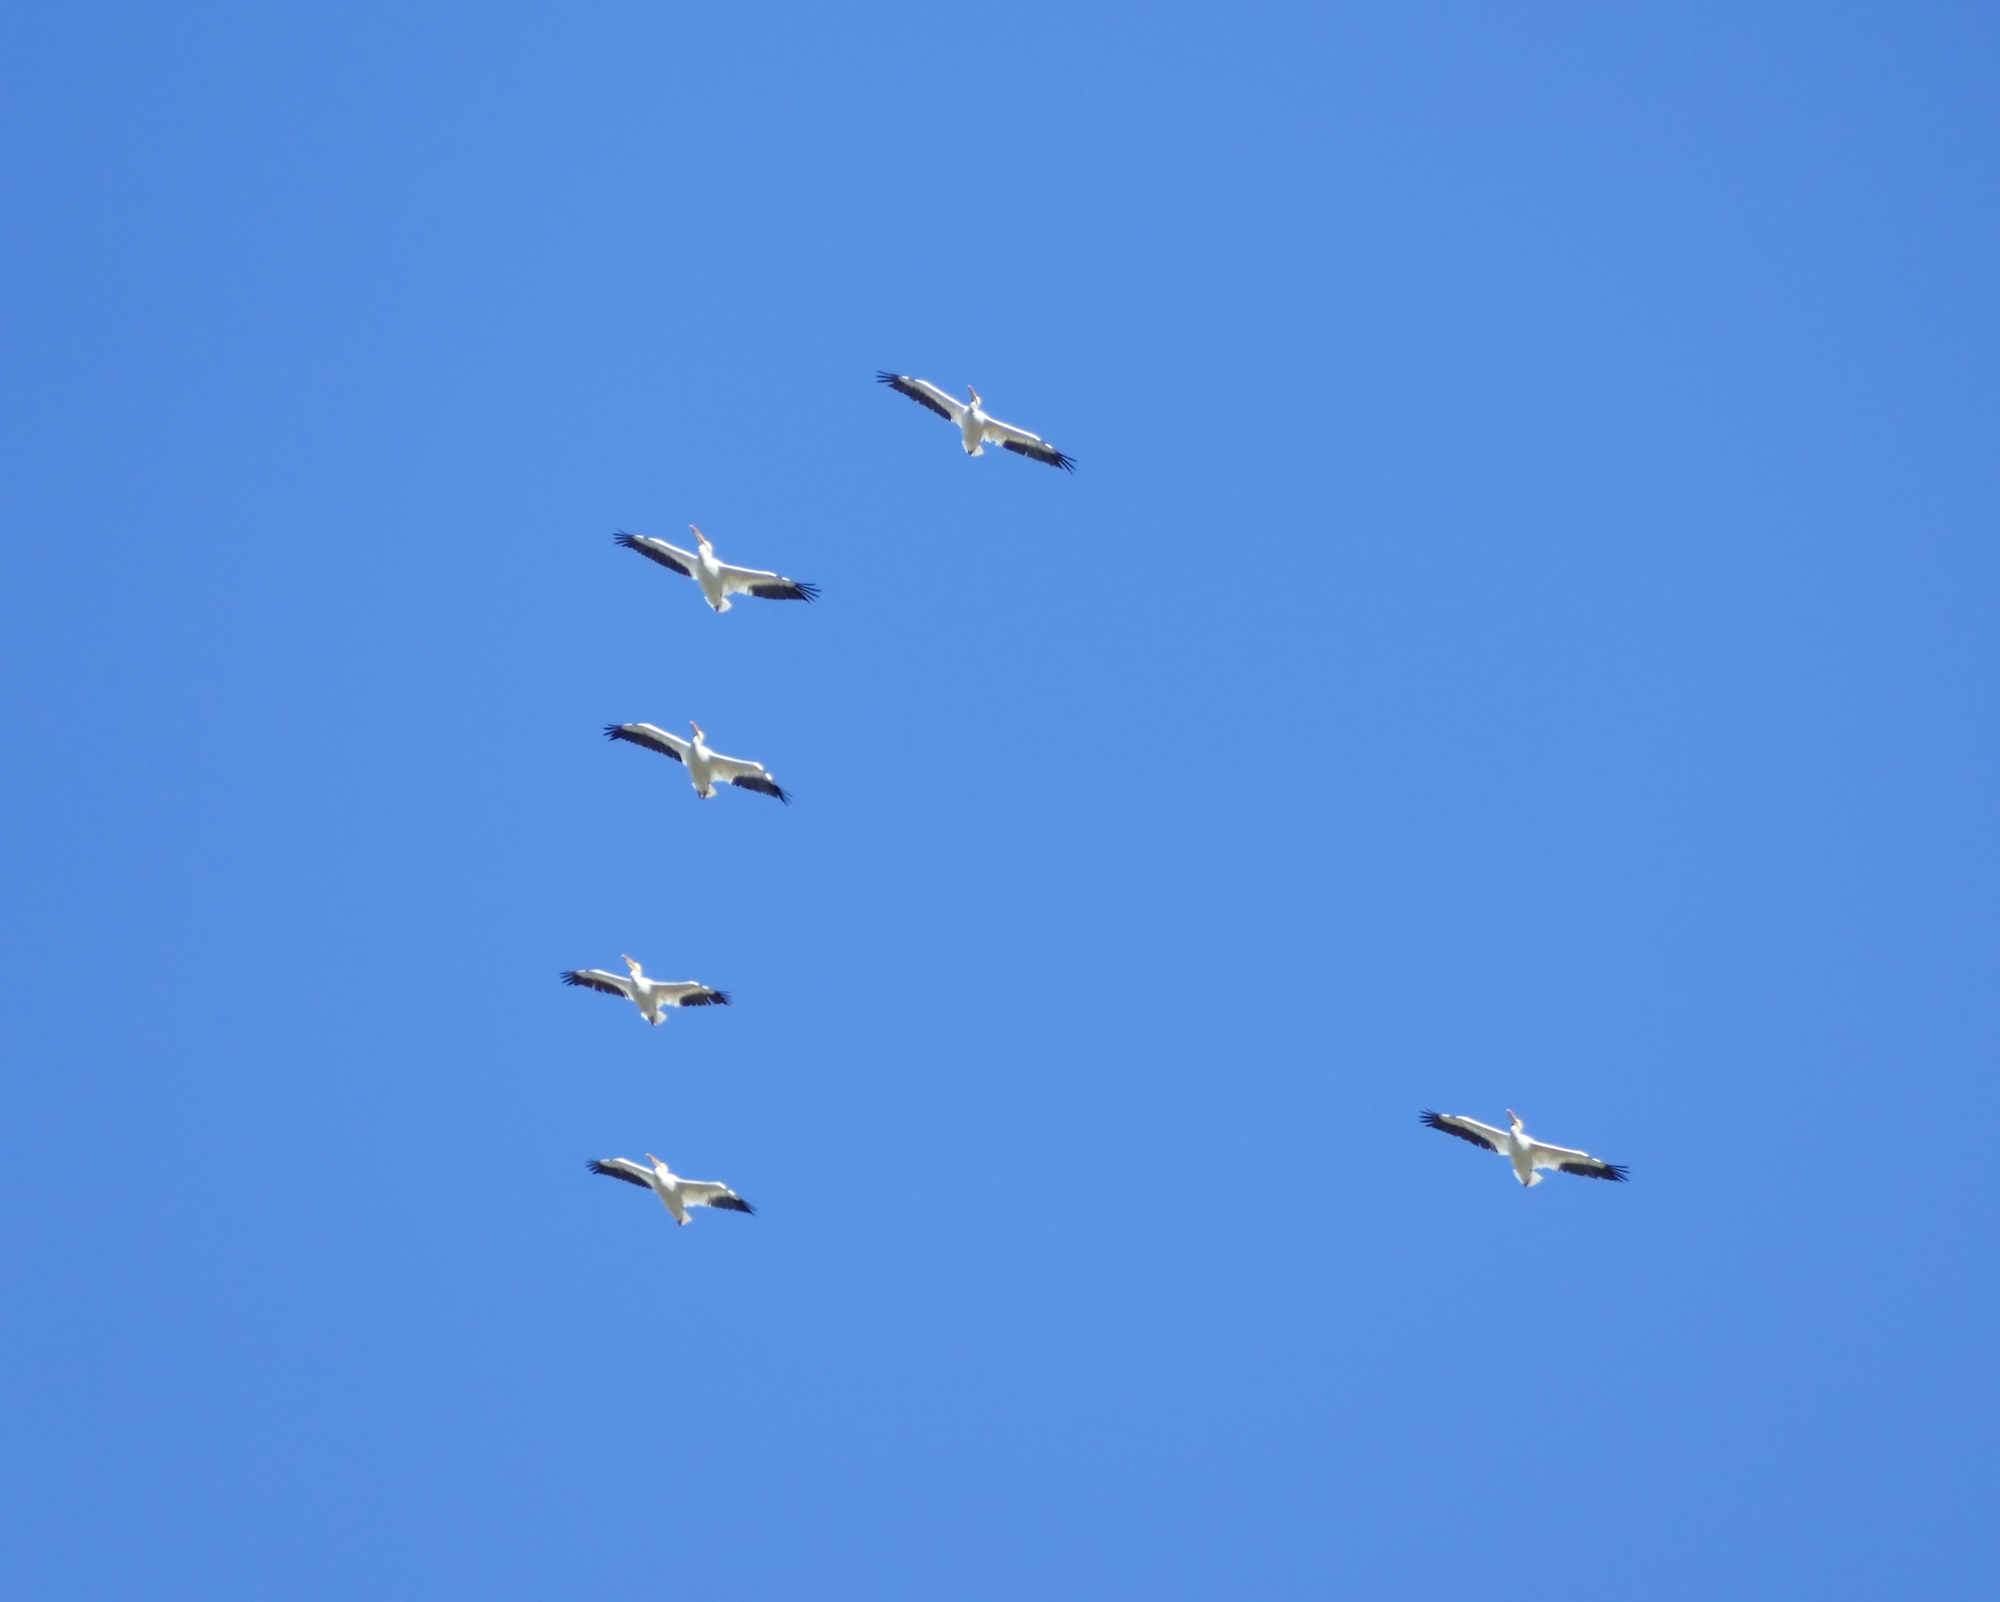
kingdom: Animalia
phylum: Chordata
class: Aves
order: Pelecaniformes
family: Pelecanidae
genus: Pelecanus
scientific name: Pelecanus erythrorhynchos
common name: American white pelican
